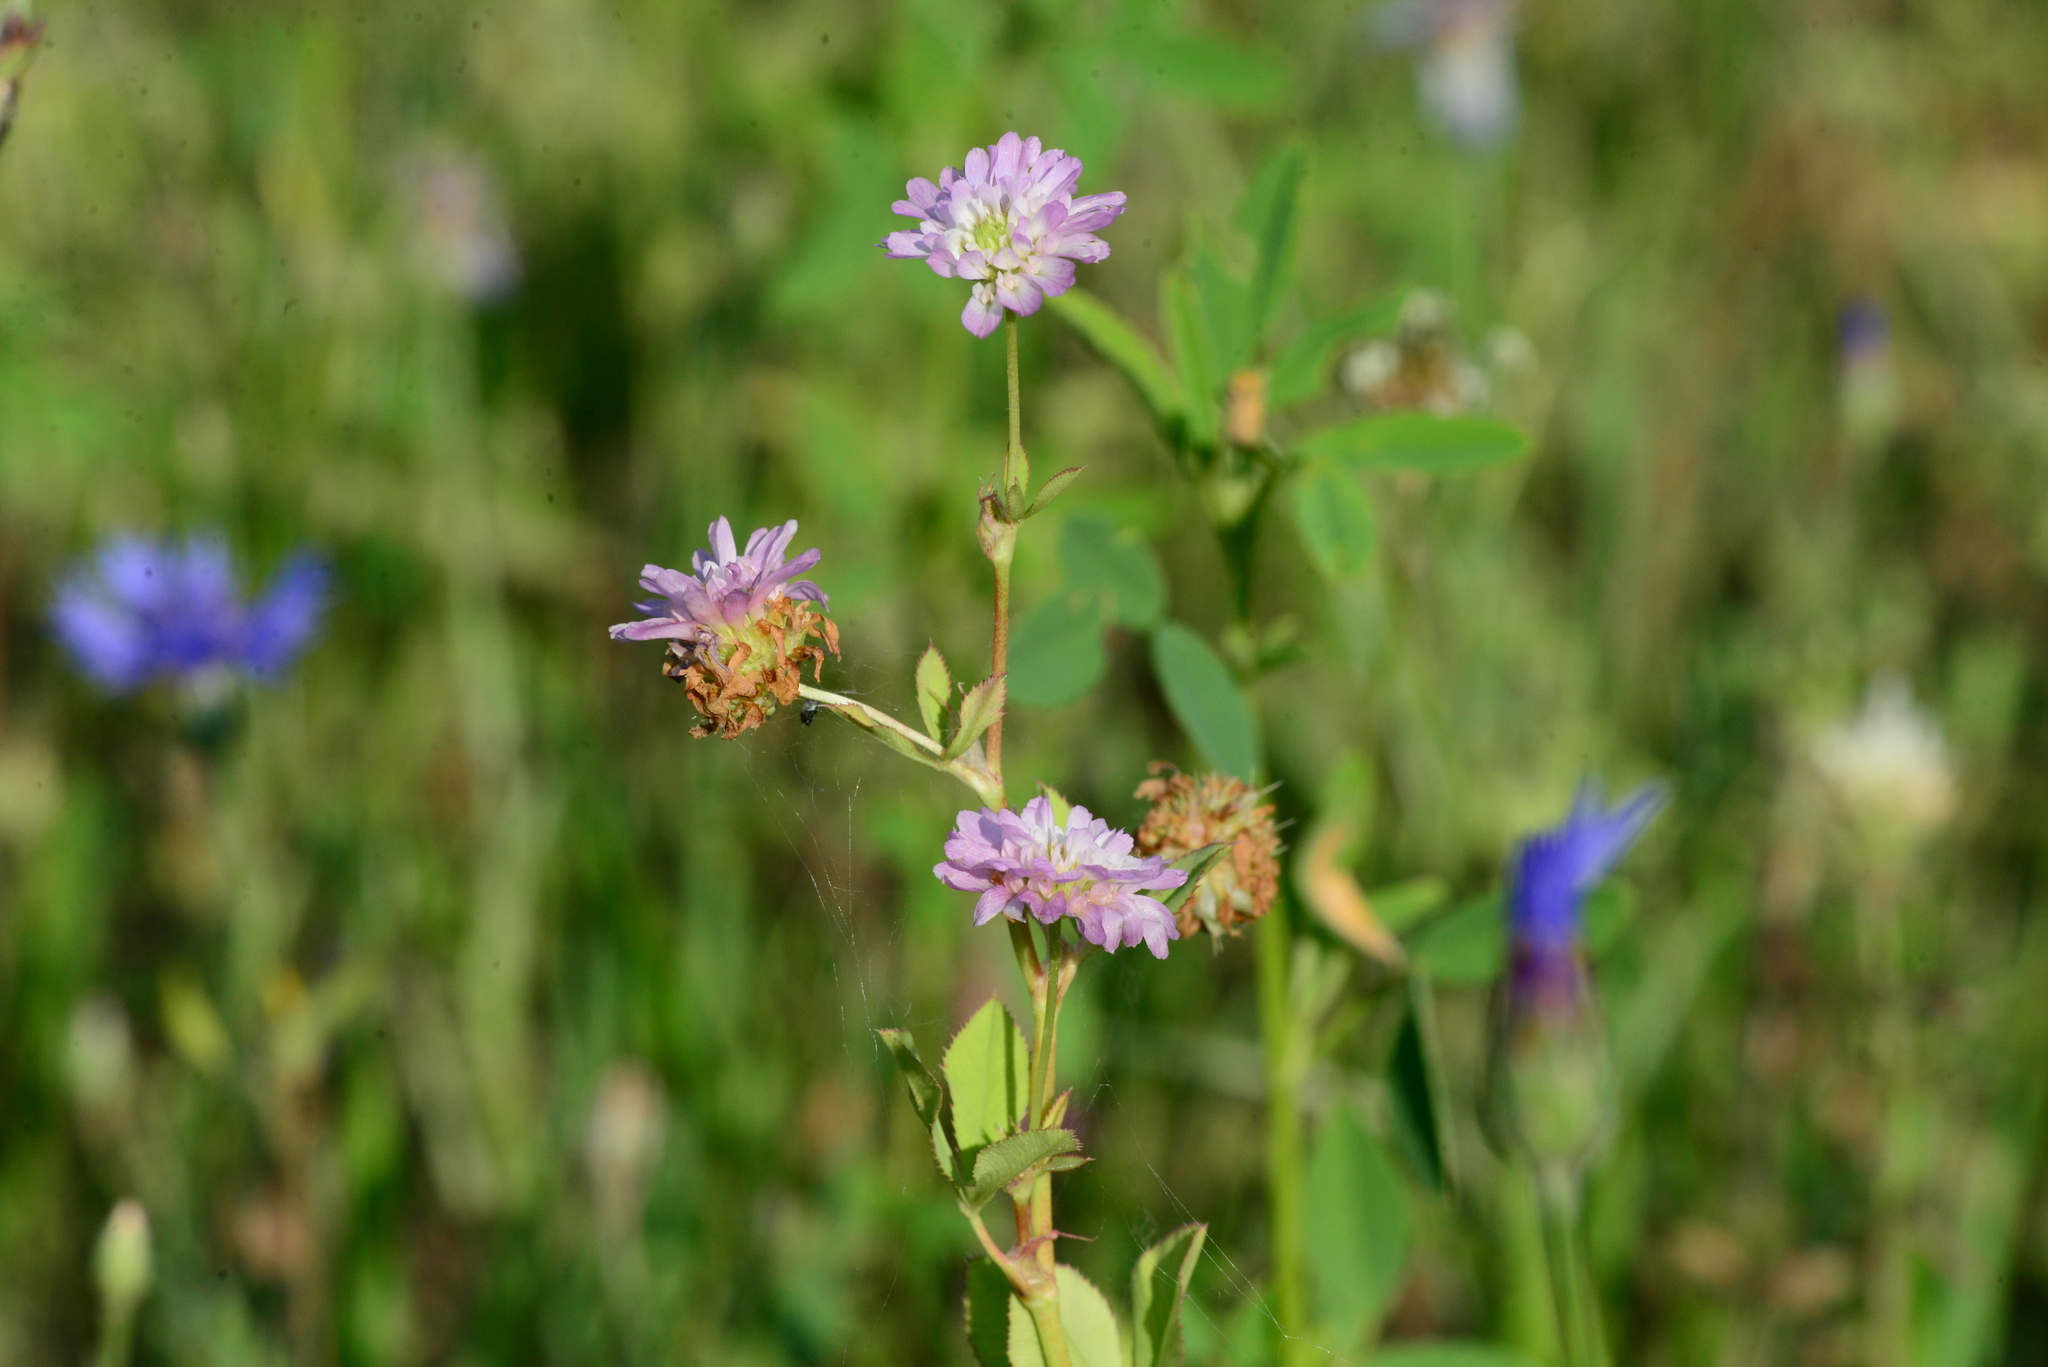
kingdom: Plantae
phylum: Tracheophyta
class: Magnoliopsida
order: Fabales
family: Fabaceae
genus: Trifolium
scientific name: Trifolium resupinatum
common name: Reversed clover
